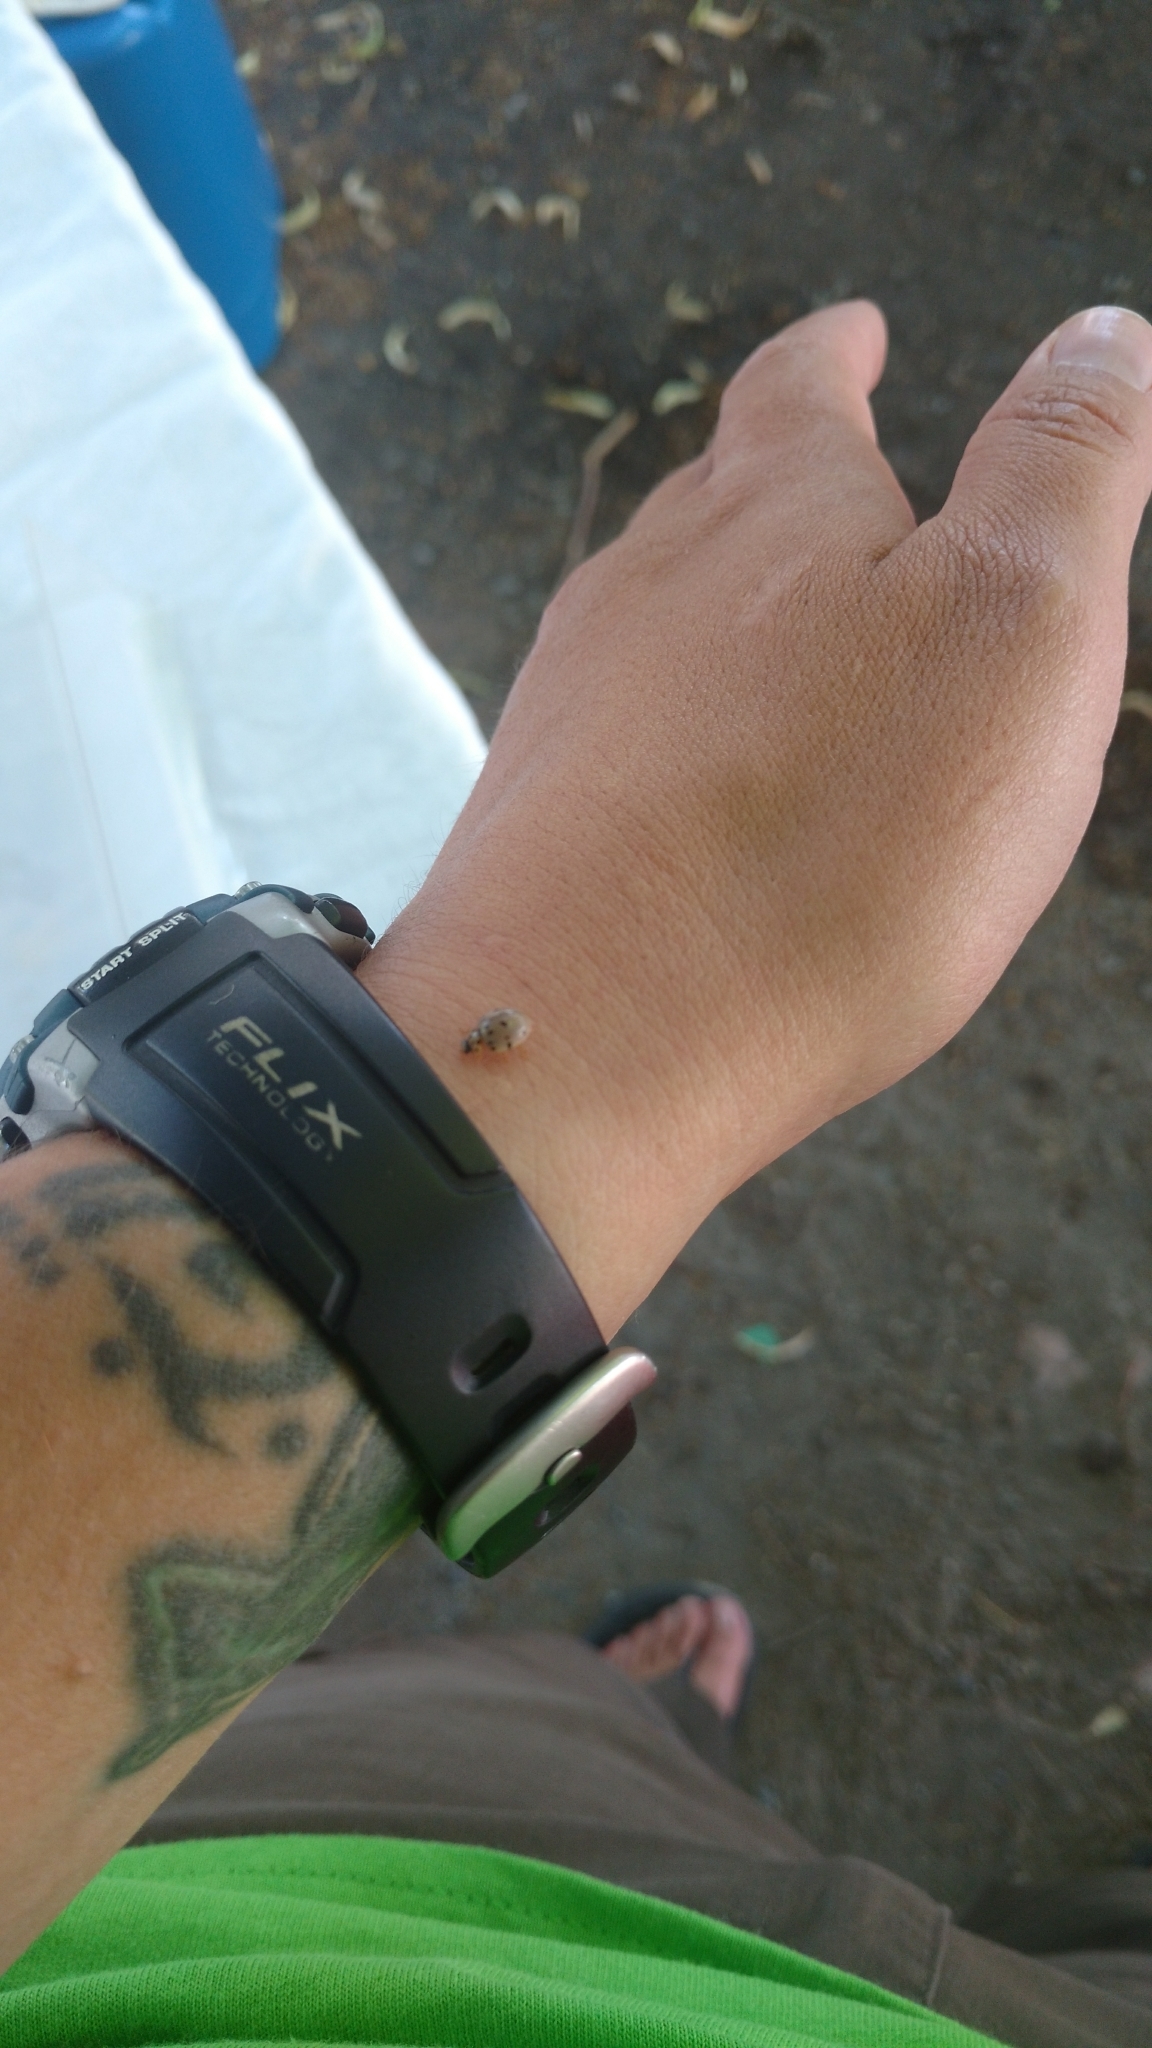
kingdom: Animalia
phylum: Arthropoda
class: Insecta
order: Coleoptera
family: Coccinellidae
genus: Olla
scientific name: Olla v-nigrum
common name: Ashy gray lady beetle
